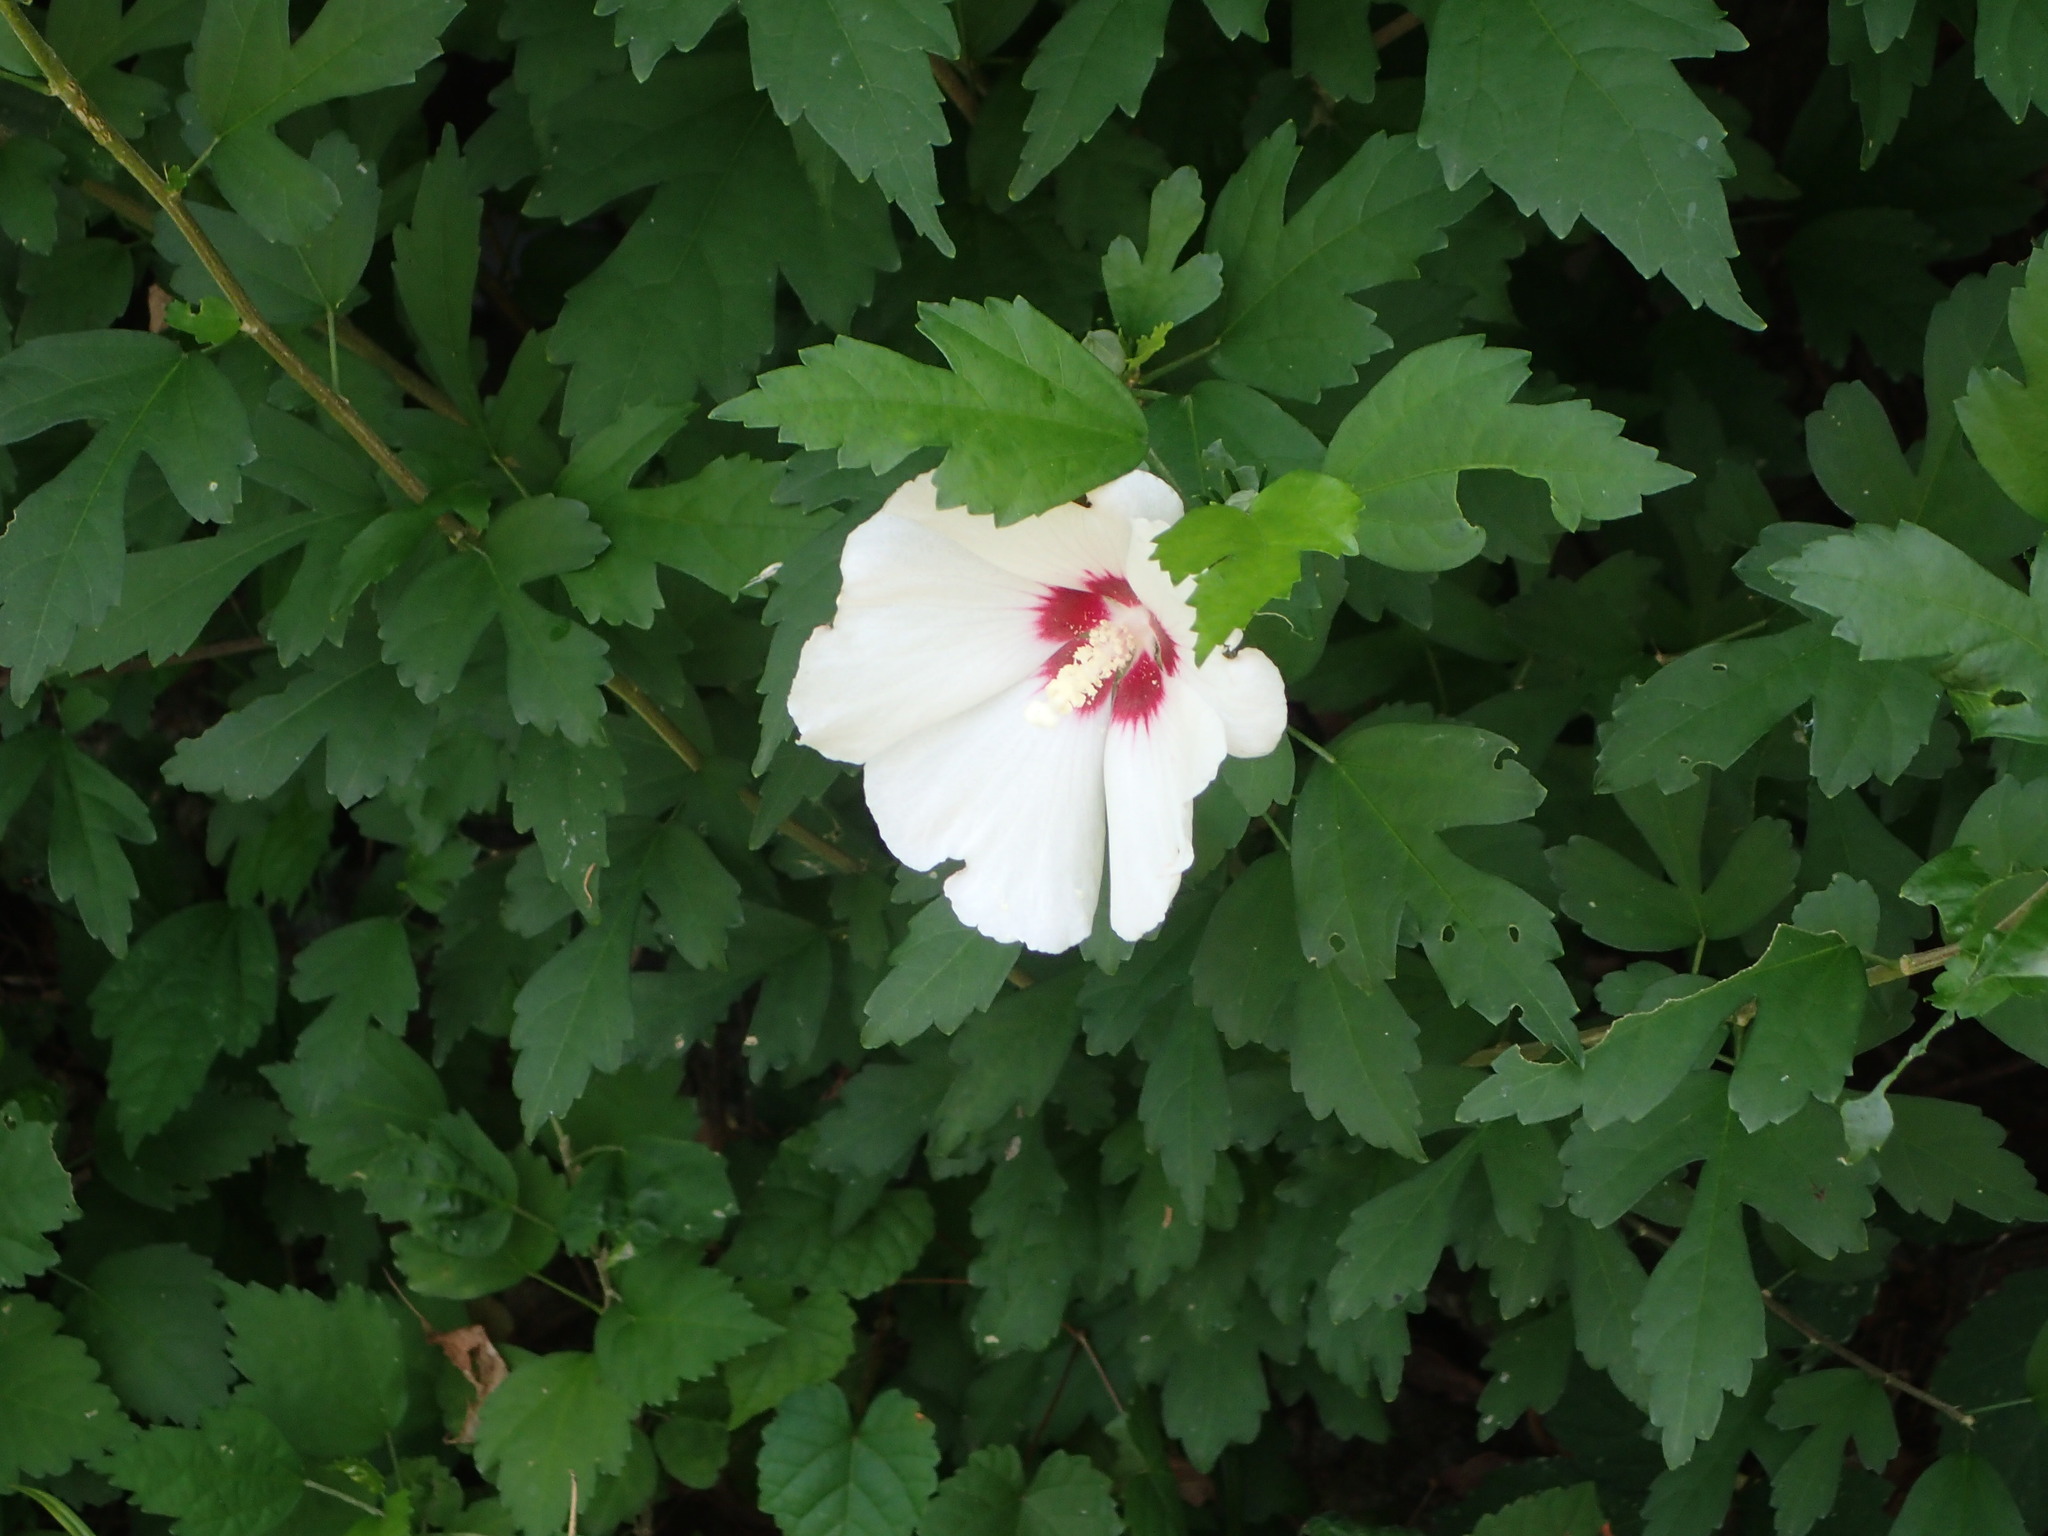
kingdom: Plantae
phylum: Tracheophyta
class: Magnoliopsida
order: Malvales
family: Malvaceae
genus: Hibiscus
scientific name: Hibiscus syriacus
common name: Syrian ketmia
